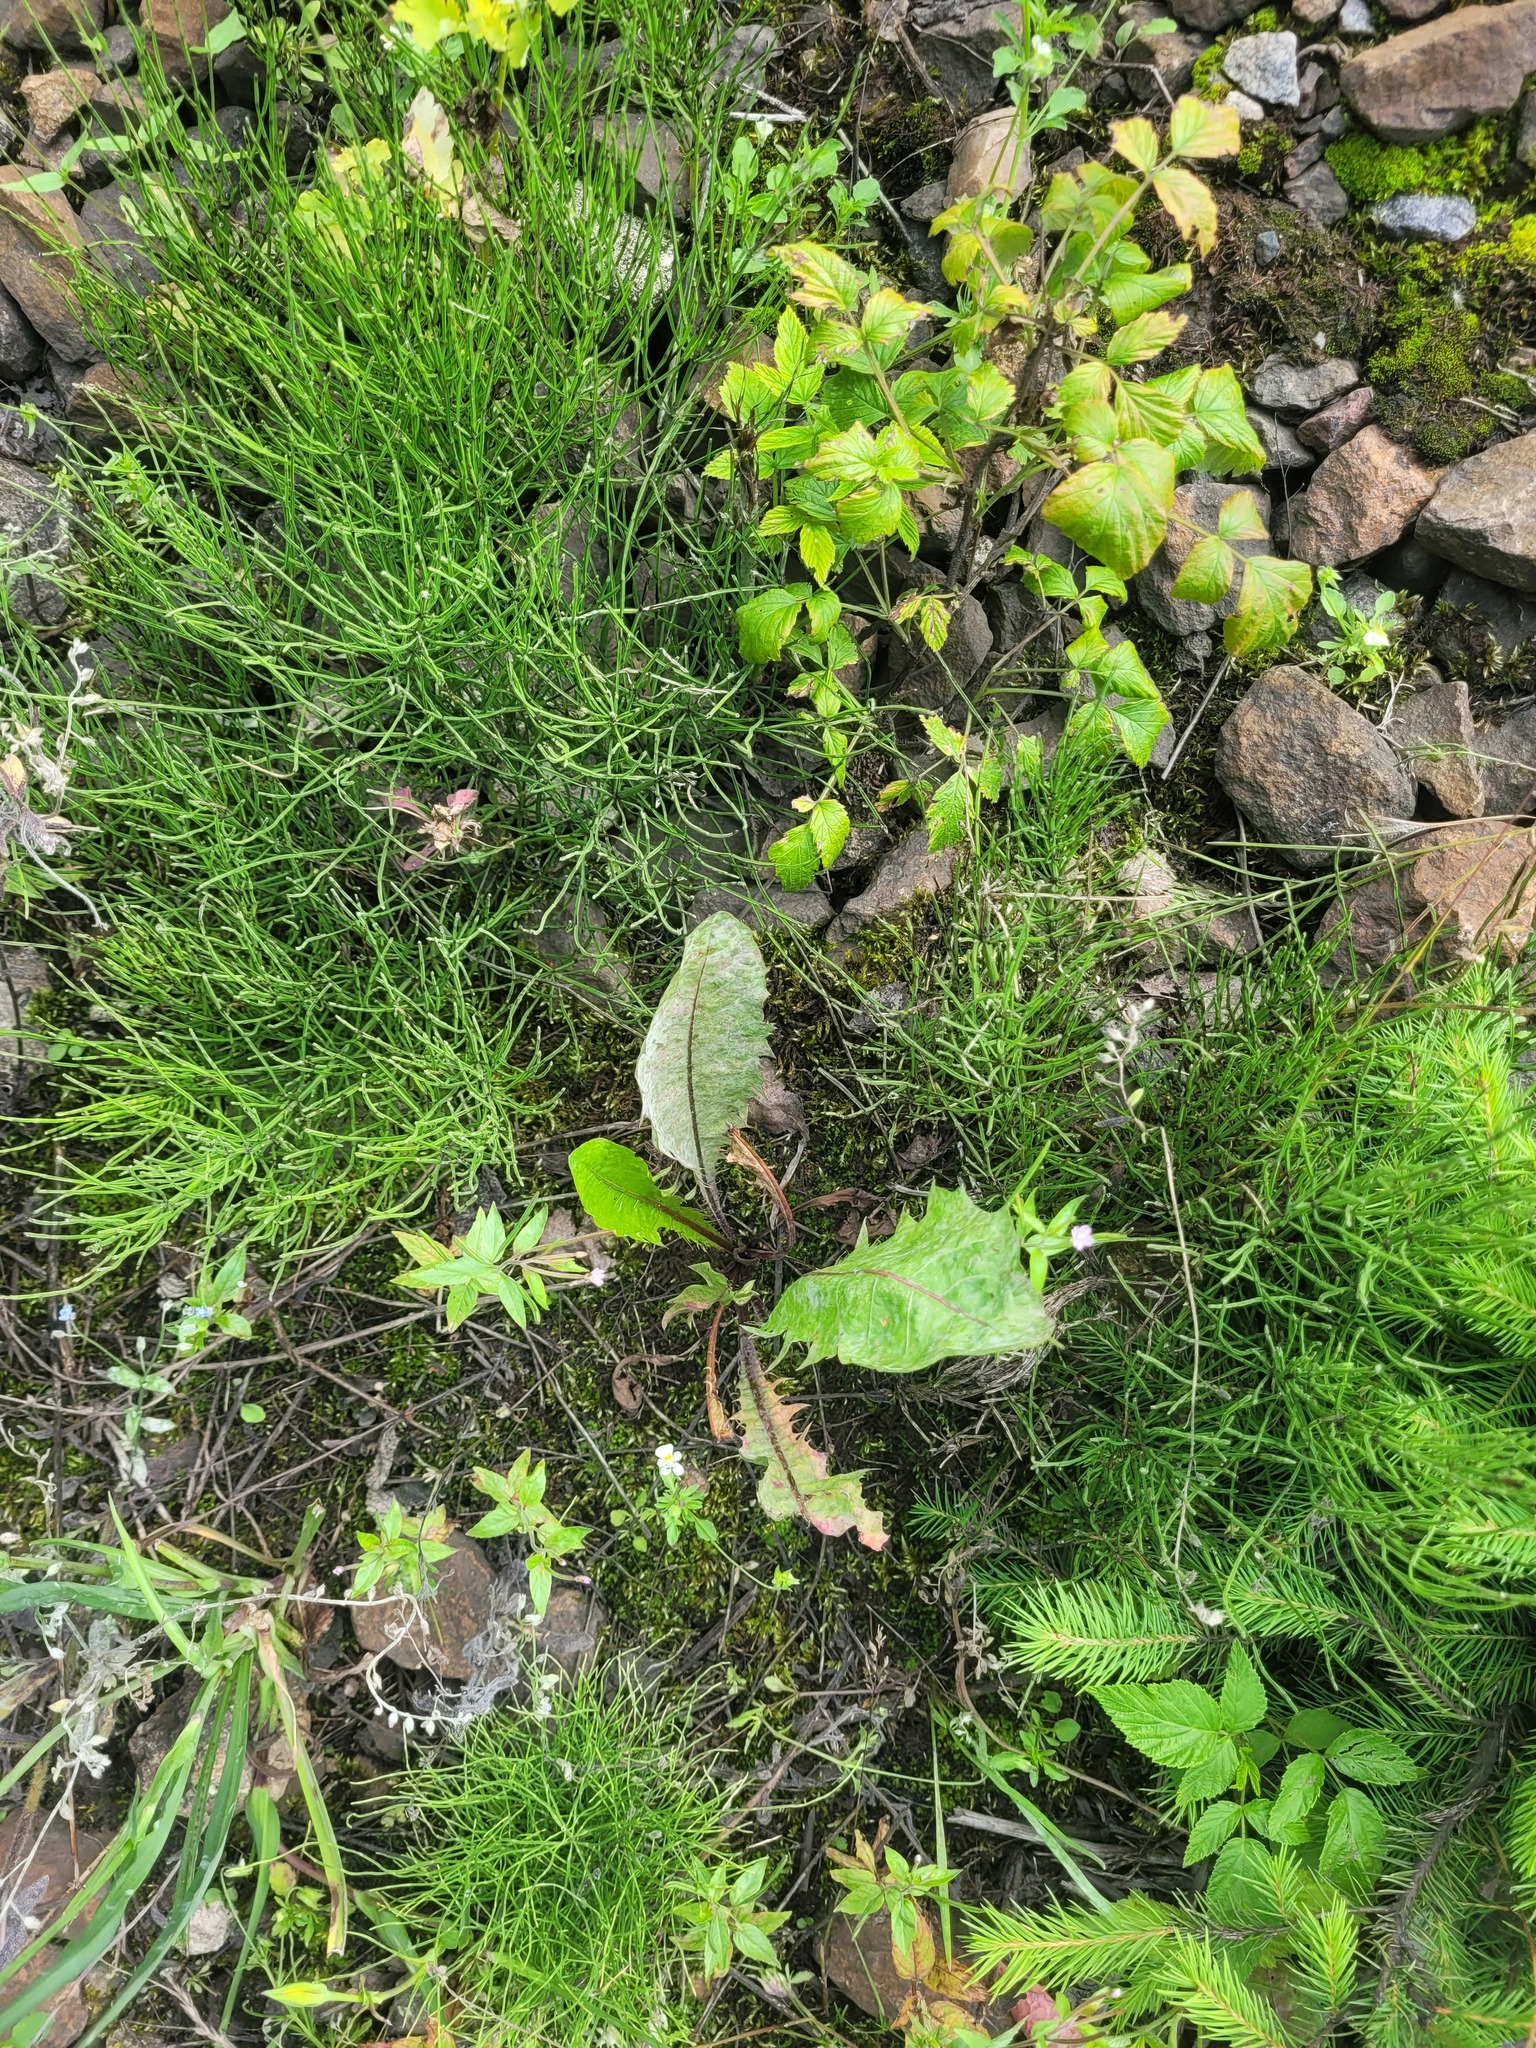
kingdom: Plantae
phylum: Tracheophyta
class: Magnoliopsida
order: Asterales
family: Asteraceae
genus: Taraxacum
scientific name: Taraxacum officinale
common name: Common dandelion
